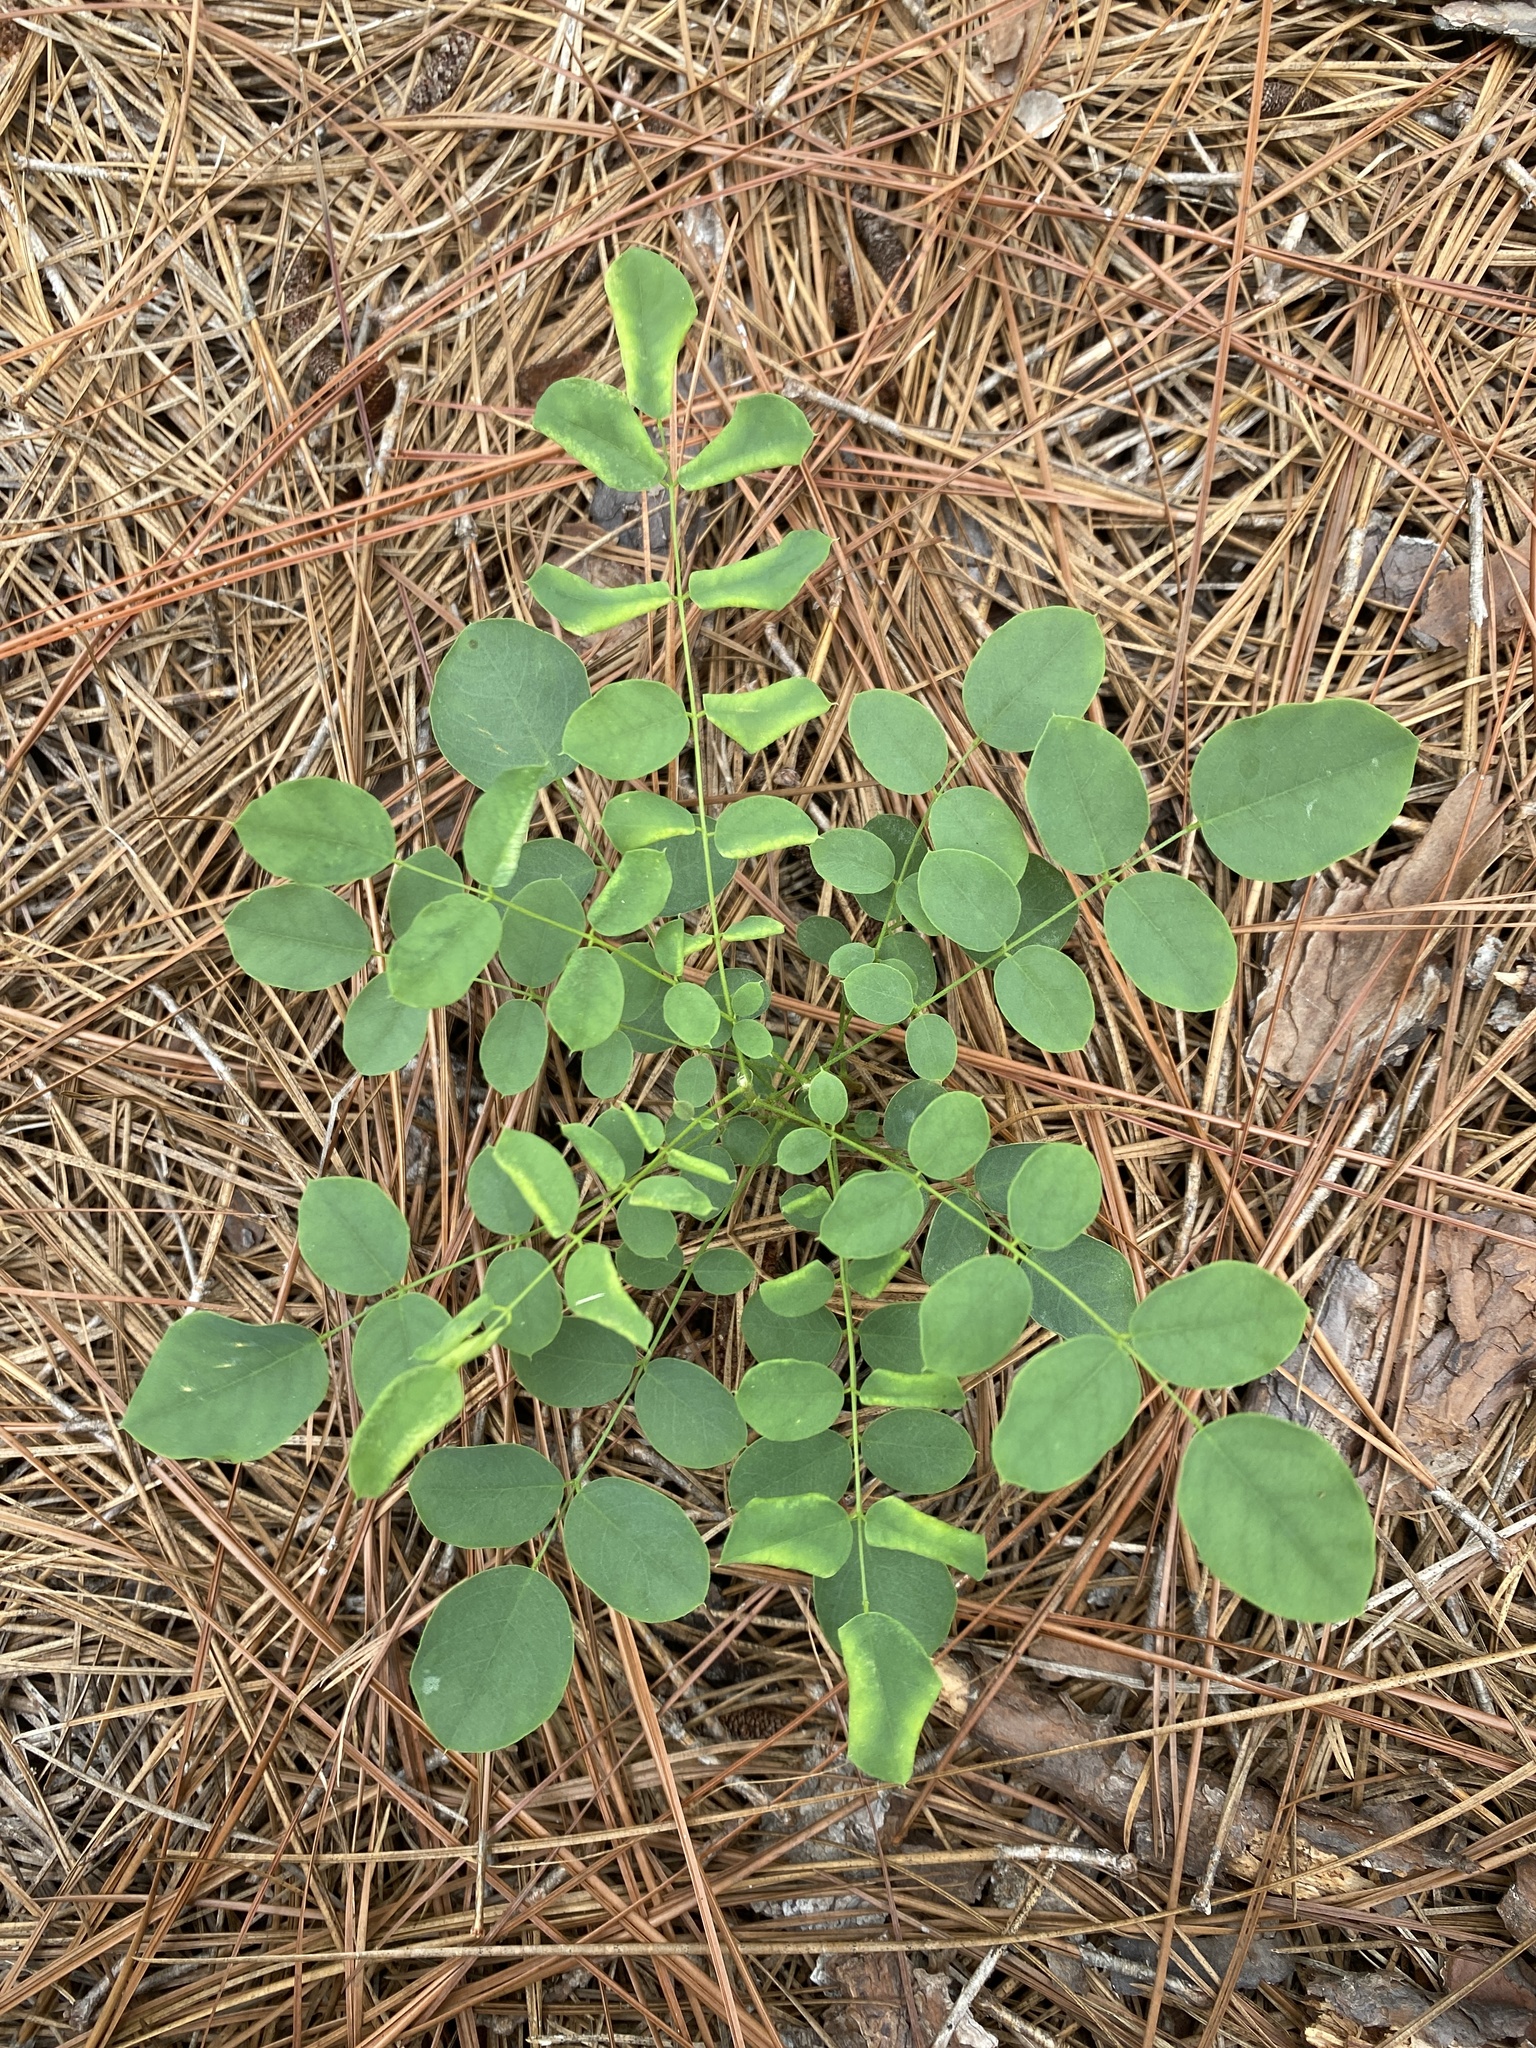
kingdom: Plantae
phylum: Tracheophyta
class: Magnoliopsida
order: Fabales
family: Fabaceae
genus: Robinia
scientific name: Robinia hispida
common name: Bristly locust
